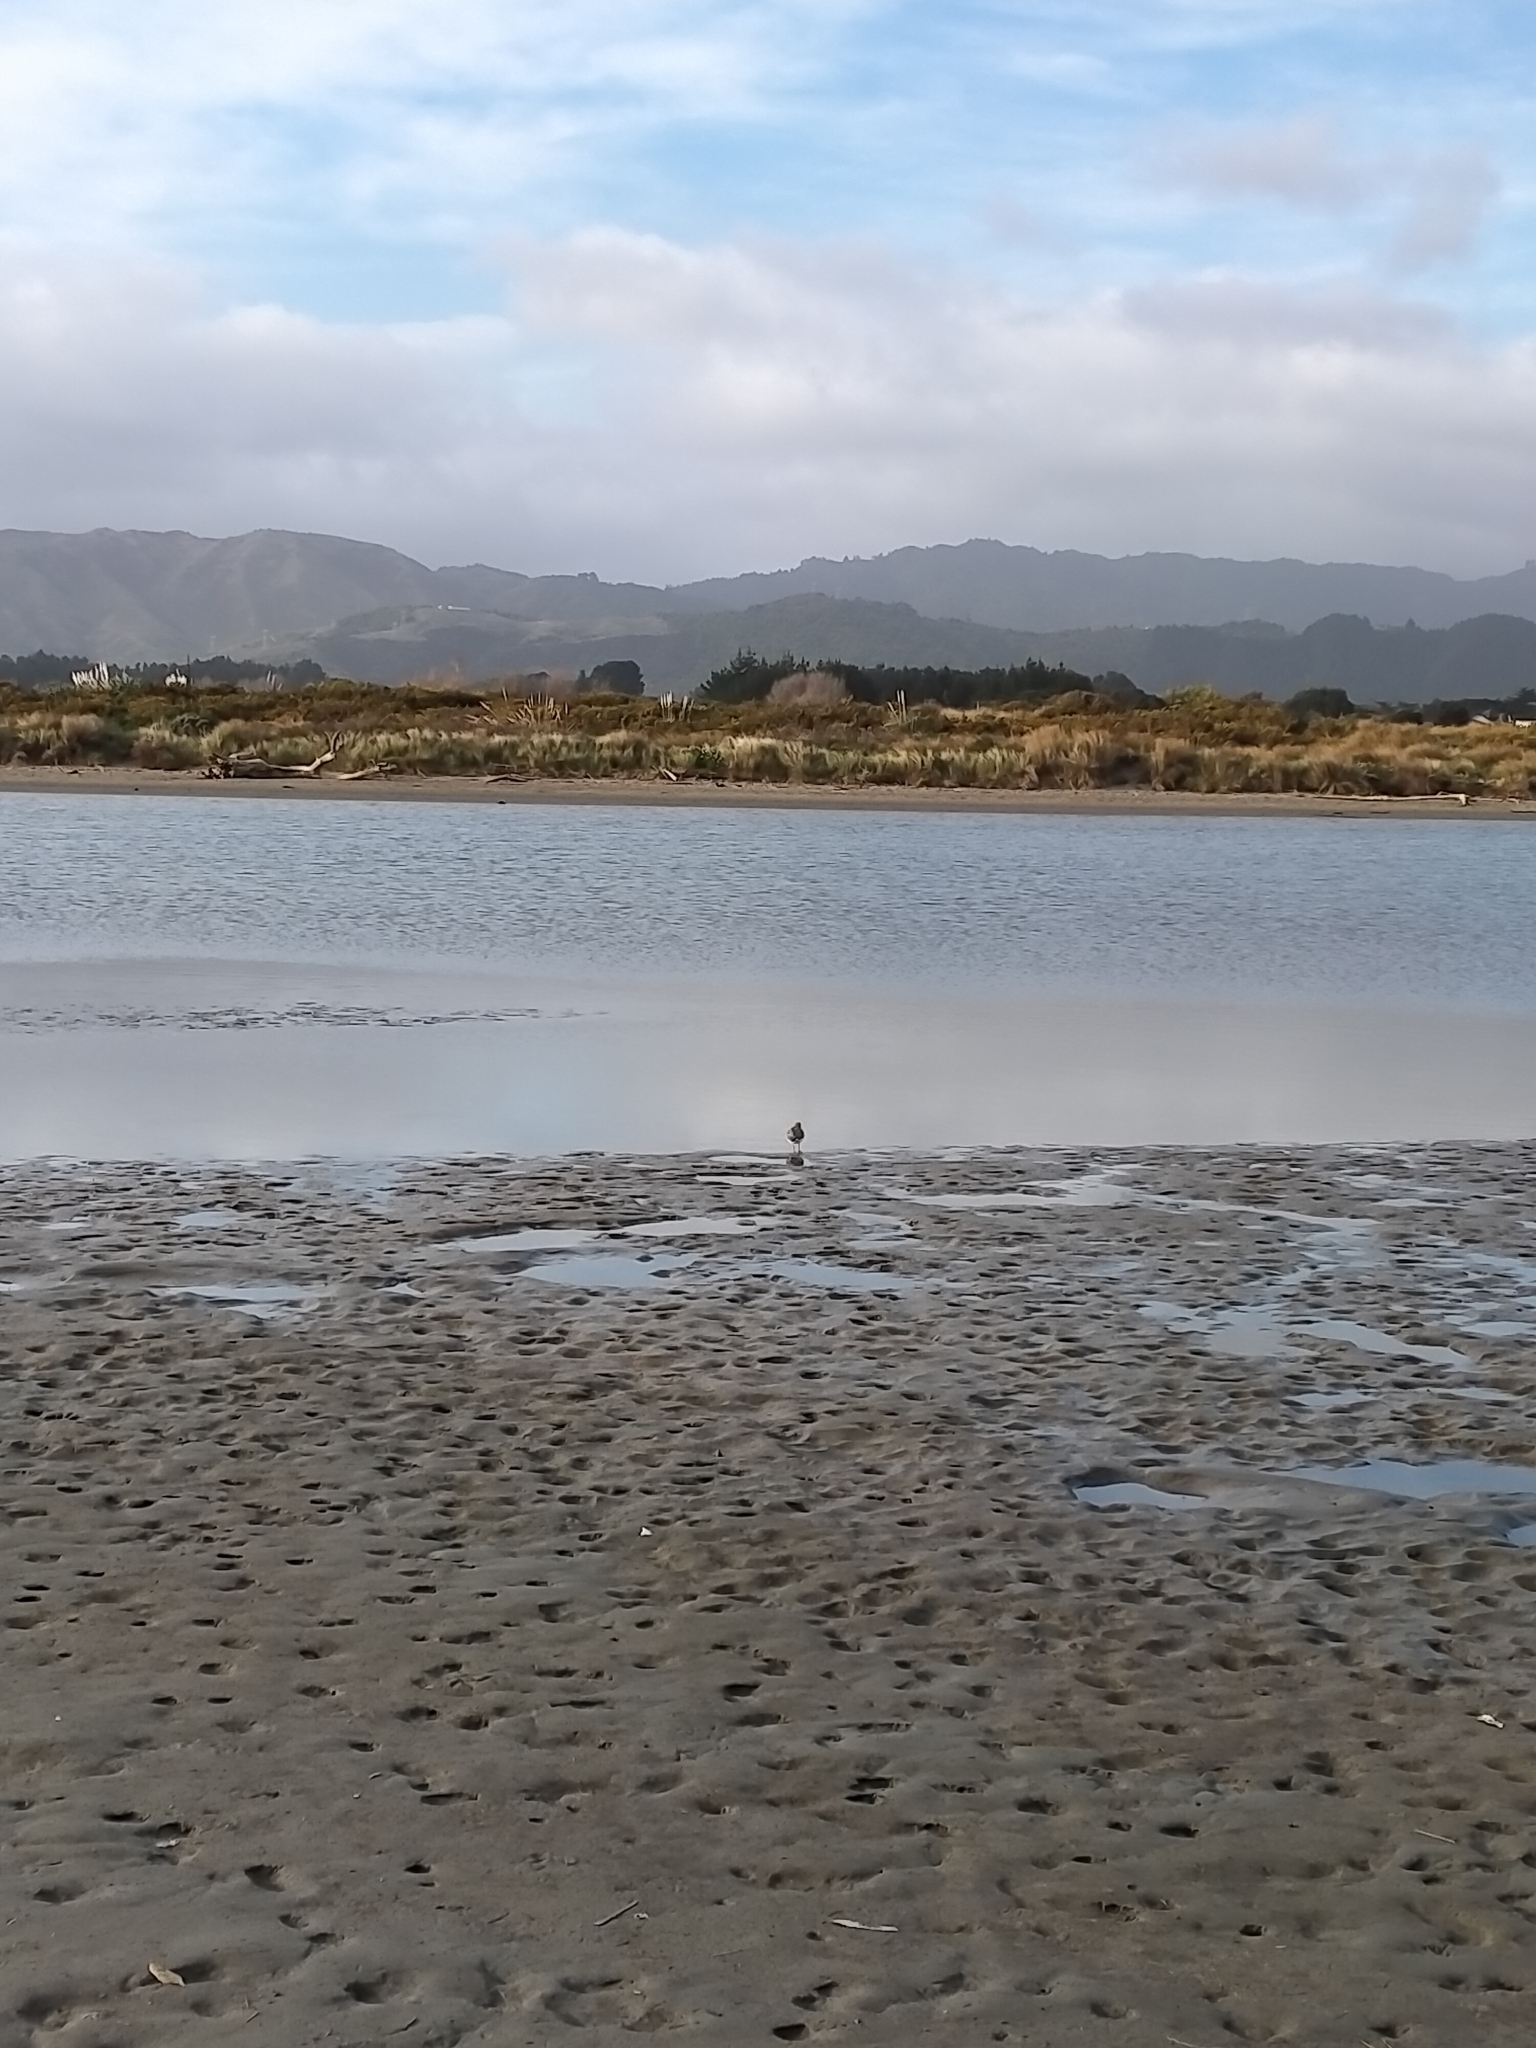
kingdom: Animalia
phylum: Chordata
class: Aves
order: Charadriiformes
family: Charadriidae
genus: Anarhynchus
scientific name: Anarhynchus
